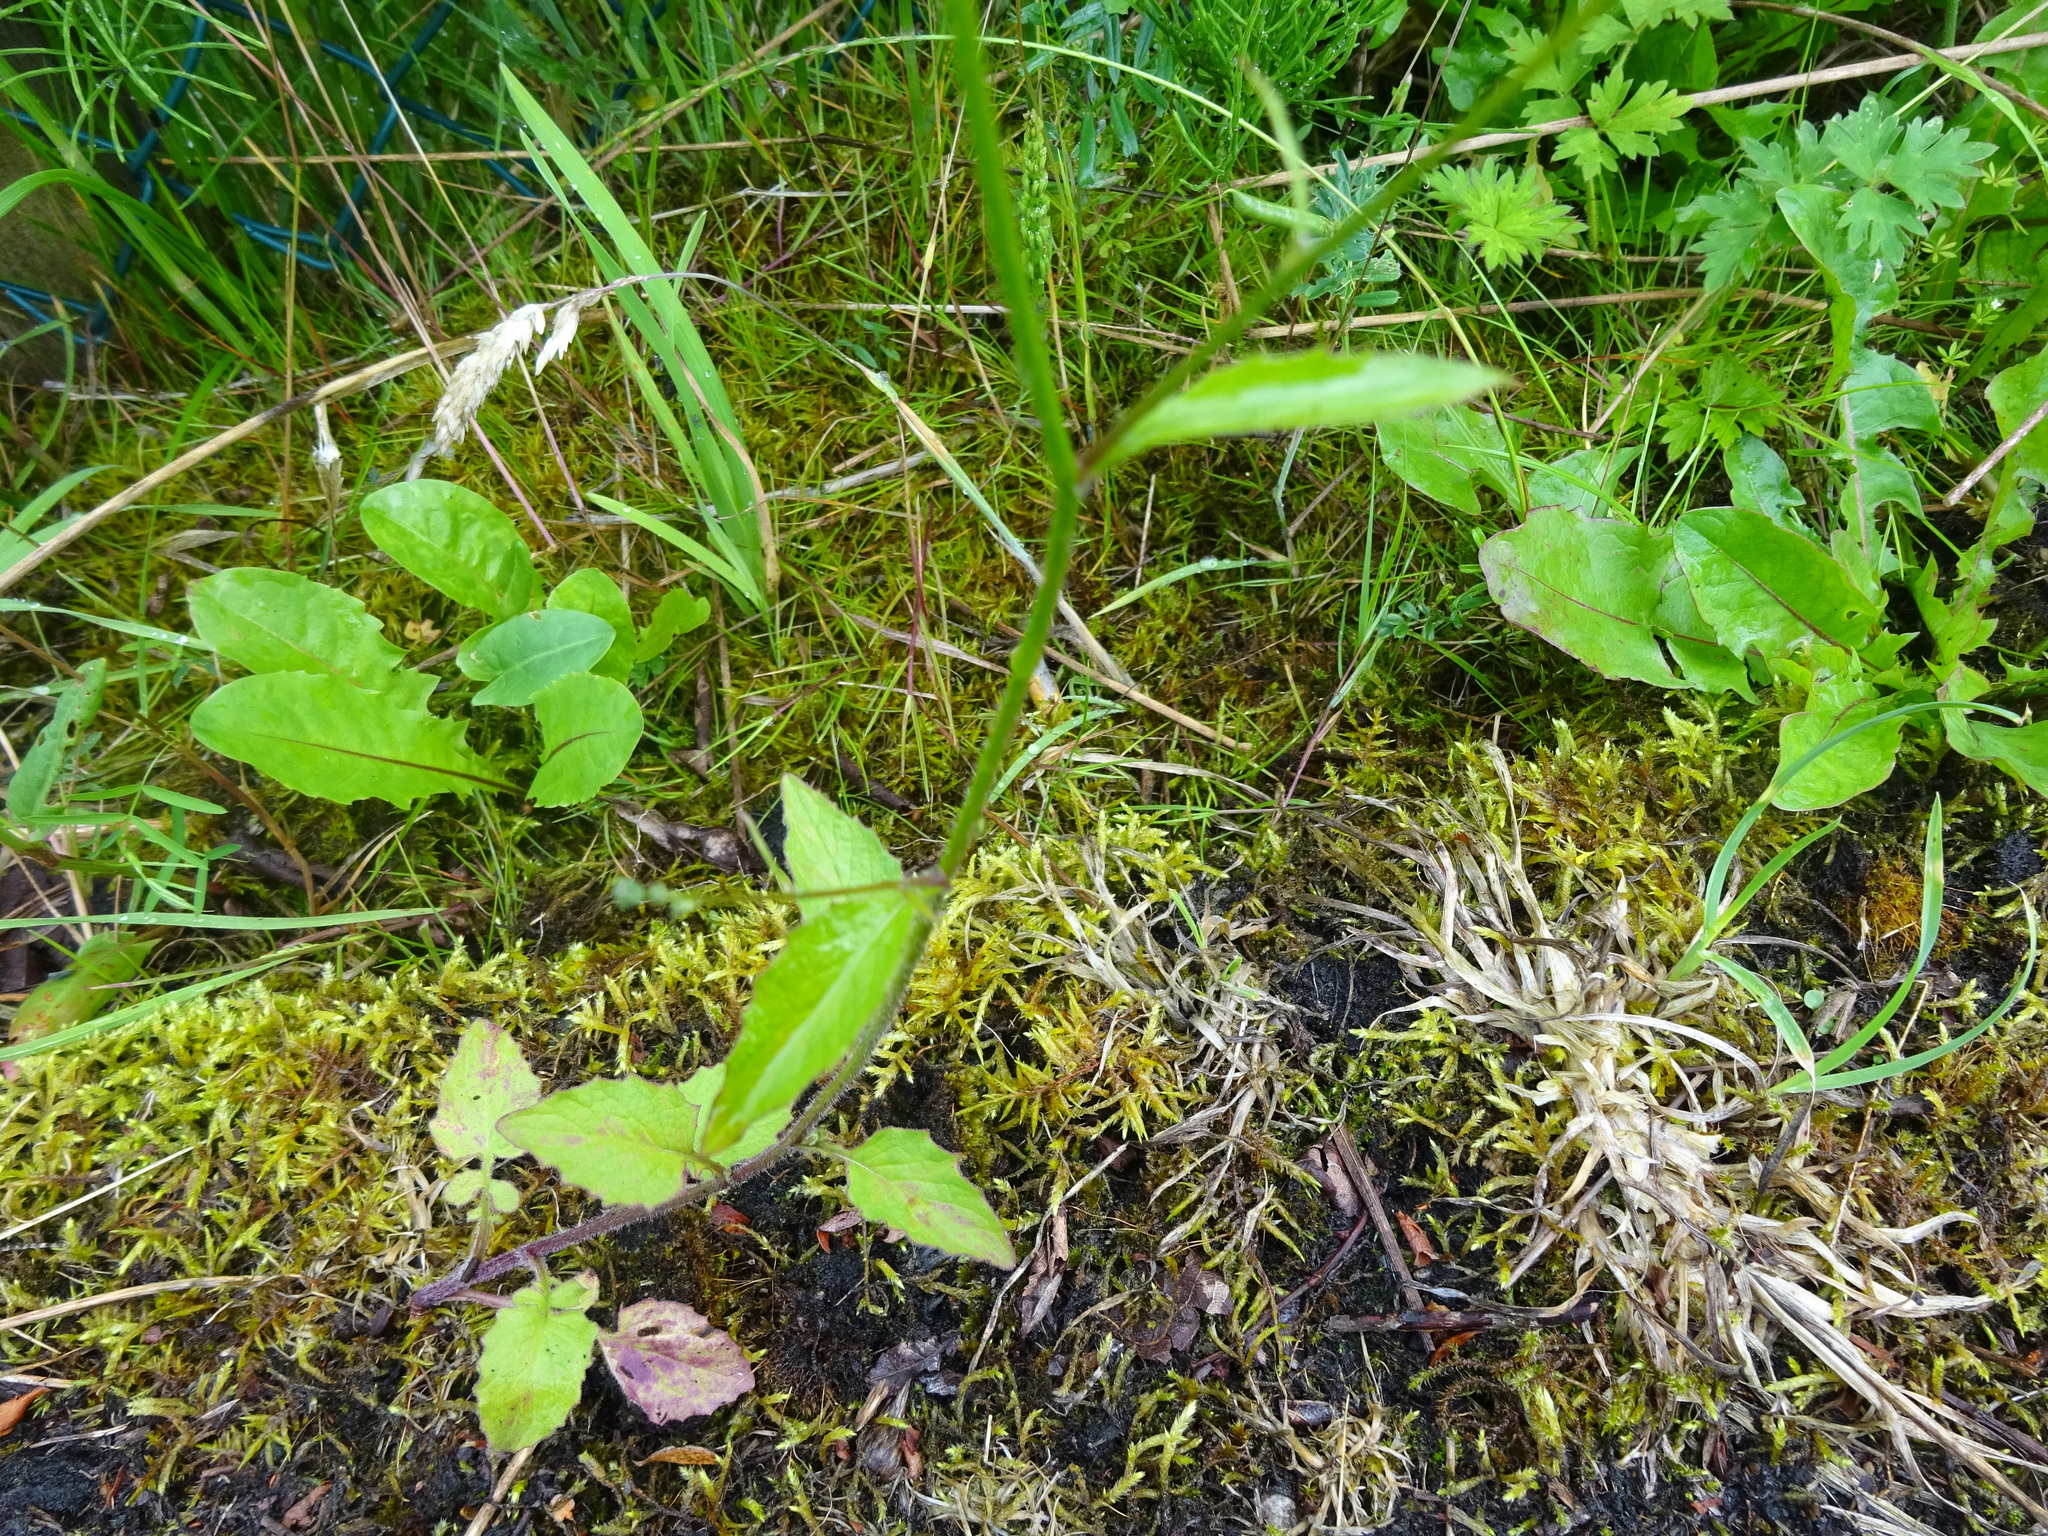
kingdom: Plantae
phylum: Tracheophyta
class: Magnoliopsida
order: Asterales
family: Asteraceae
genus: Lapsana
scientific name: Lapsana communis
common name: Nipplewort
